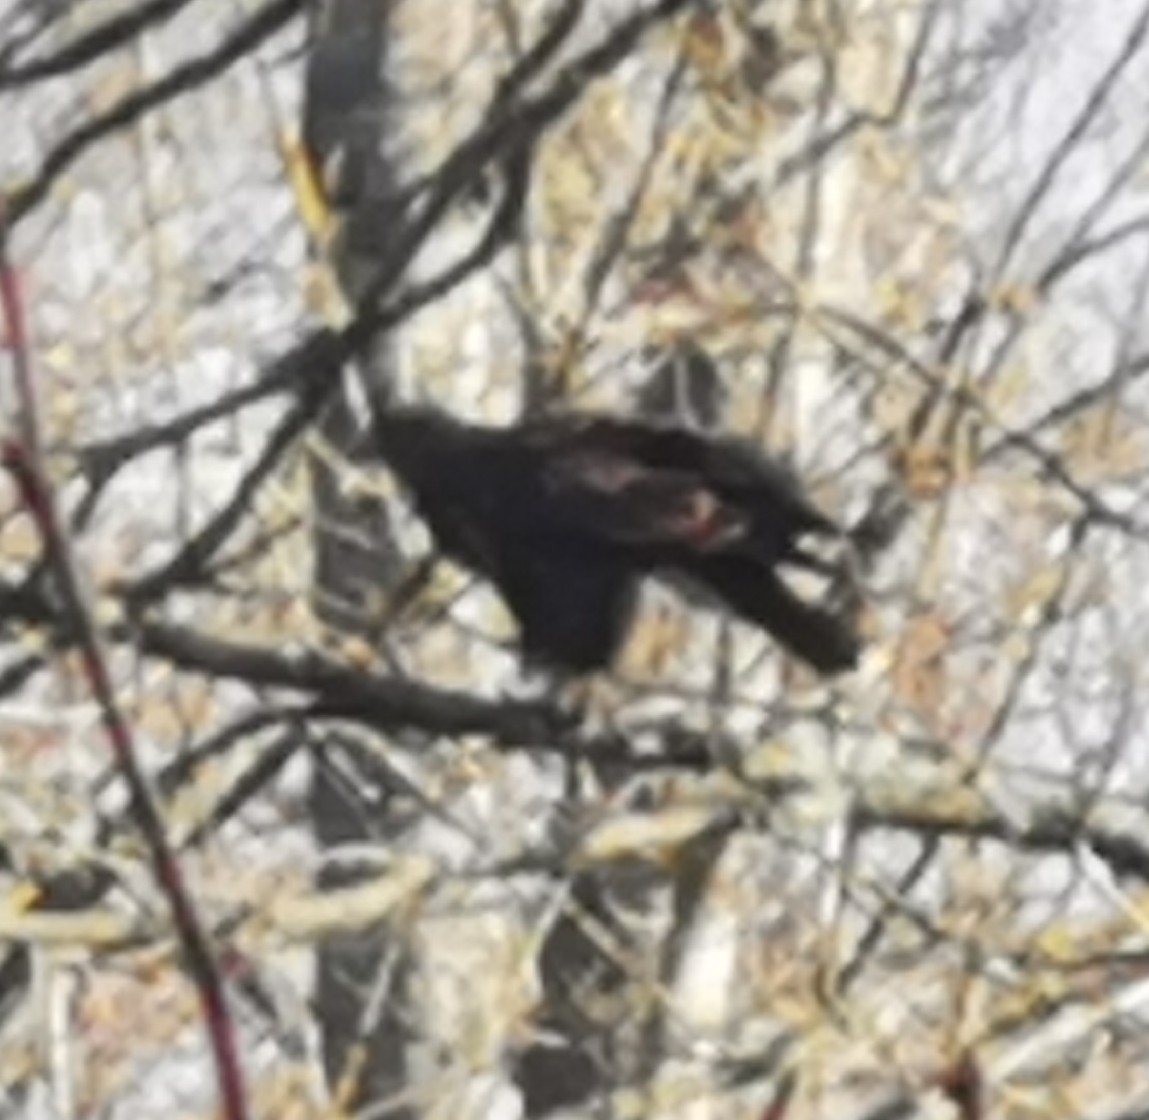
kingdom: Animalia
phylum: Chordata
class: Aves
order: Accipitriformes
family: Accipitridae
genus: Buteo
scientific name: Buteo buteo
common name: Common buzzard
